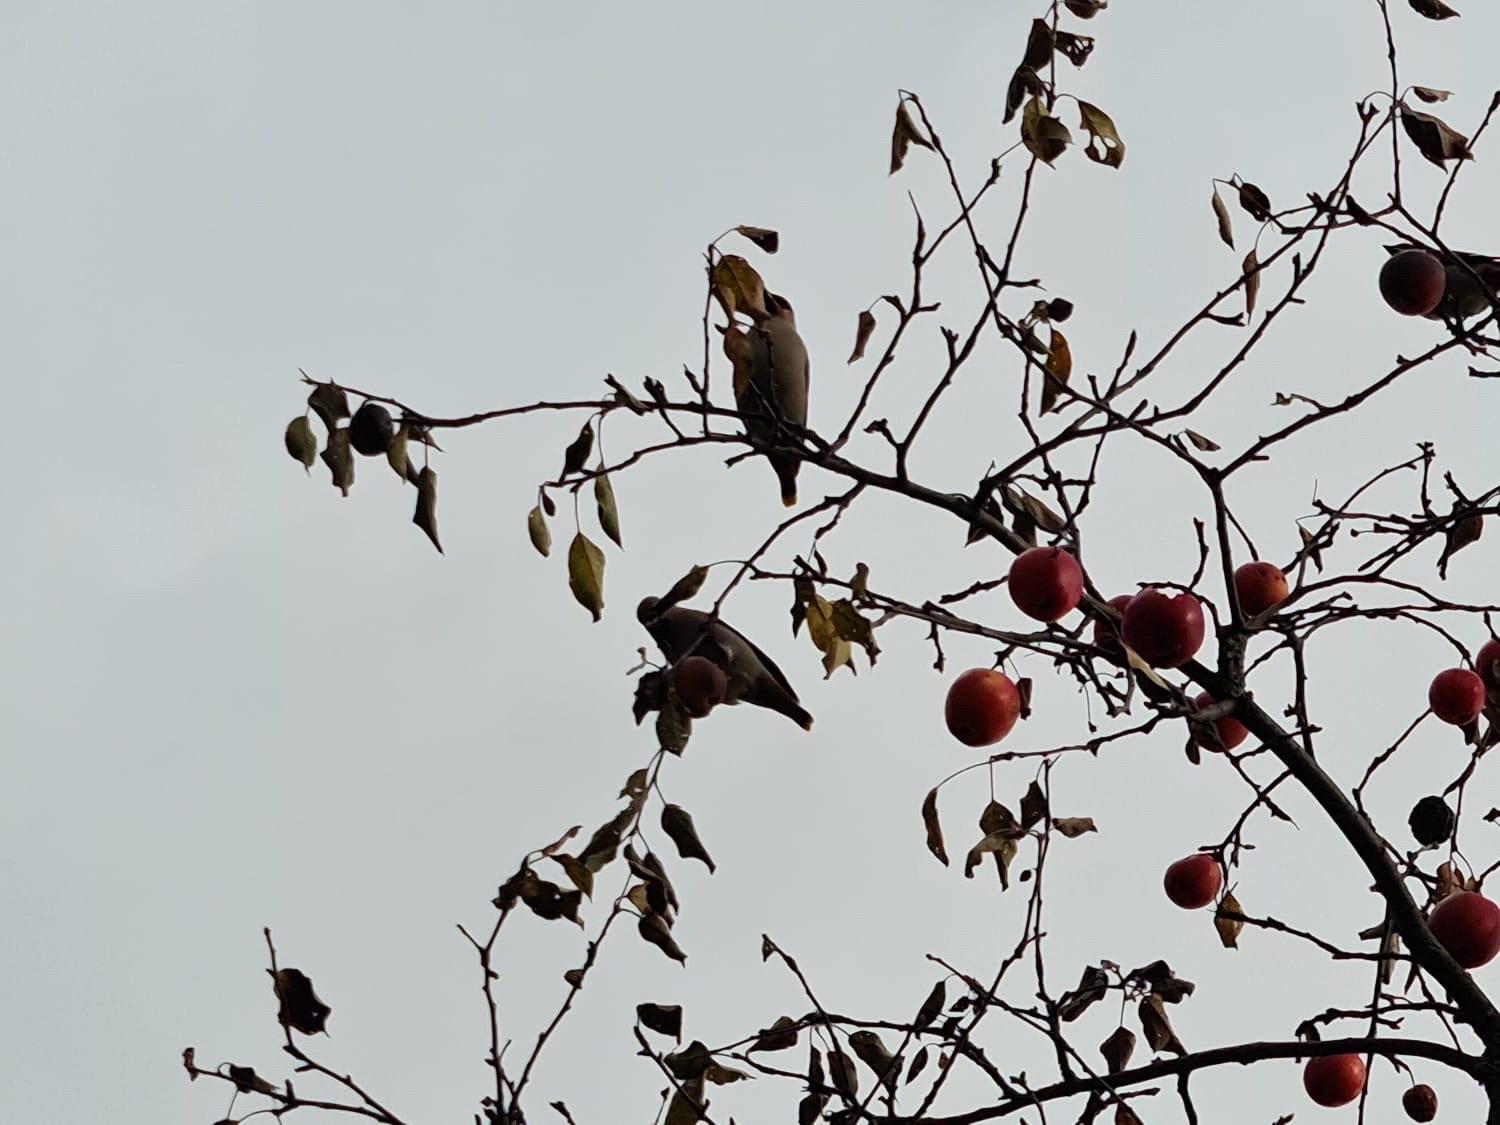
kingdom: Animalia
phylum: Chordata
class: Aves
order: Passeriformes
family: Bombycillidae
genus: Bombycilla
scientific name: Bombycilla garrulus
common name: Bohemian waxwing
